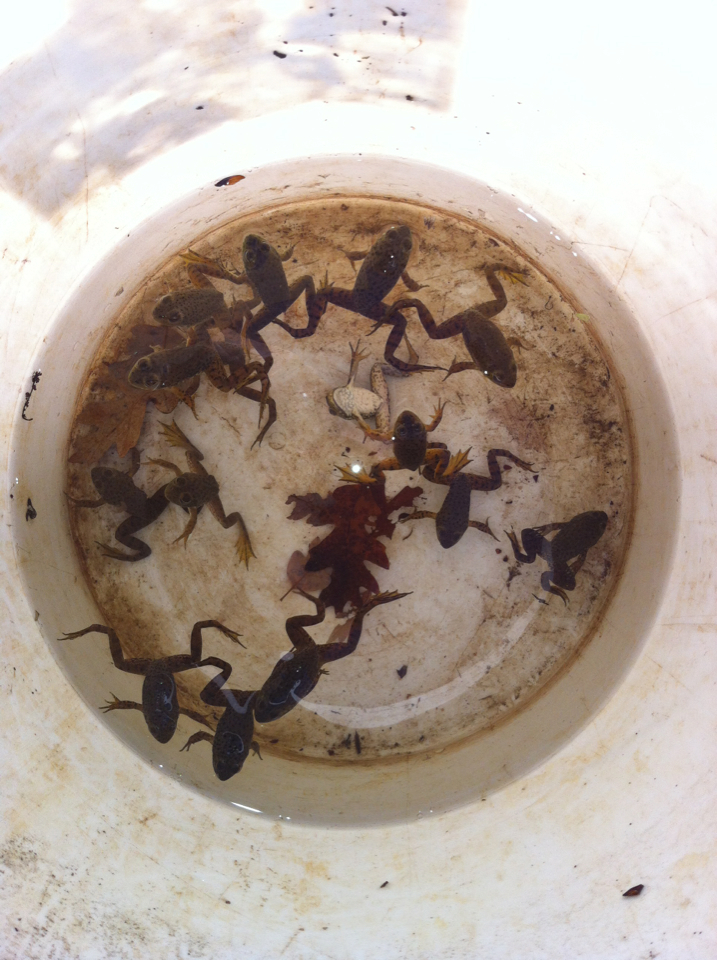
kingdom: Animalia
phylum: Chordata
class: Amphibia
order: Anura
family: Ranidae
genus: Lithobates
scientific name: Lithobates catesbeianus
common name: American bullfrog
